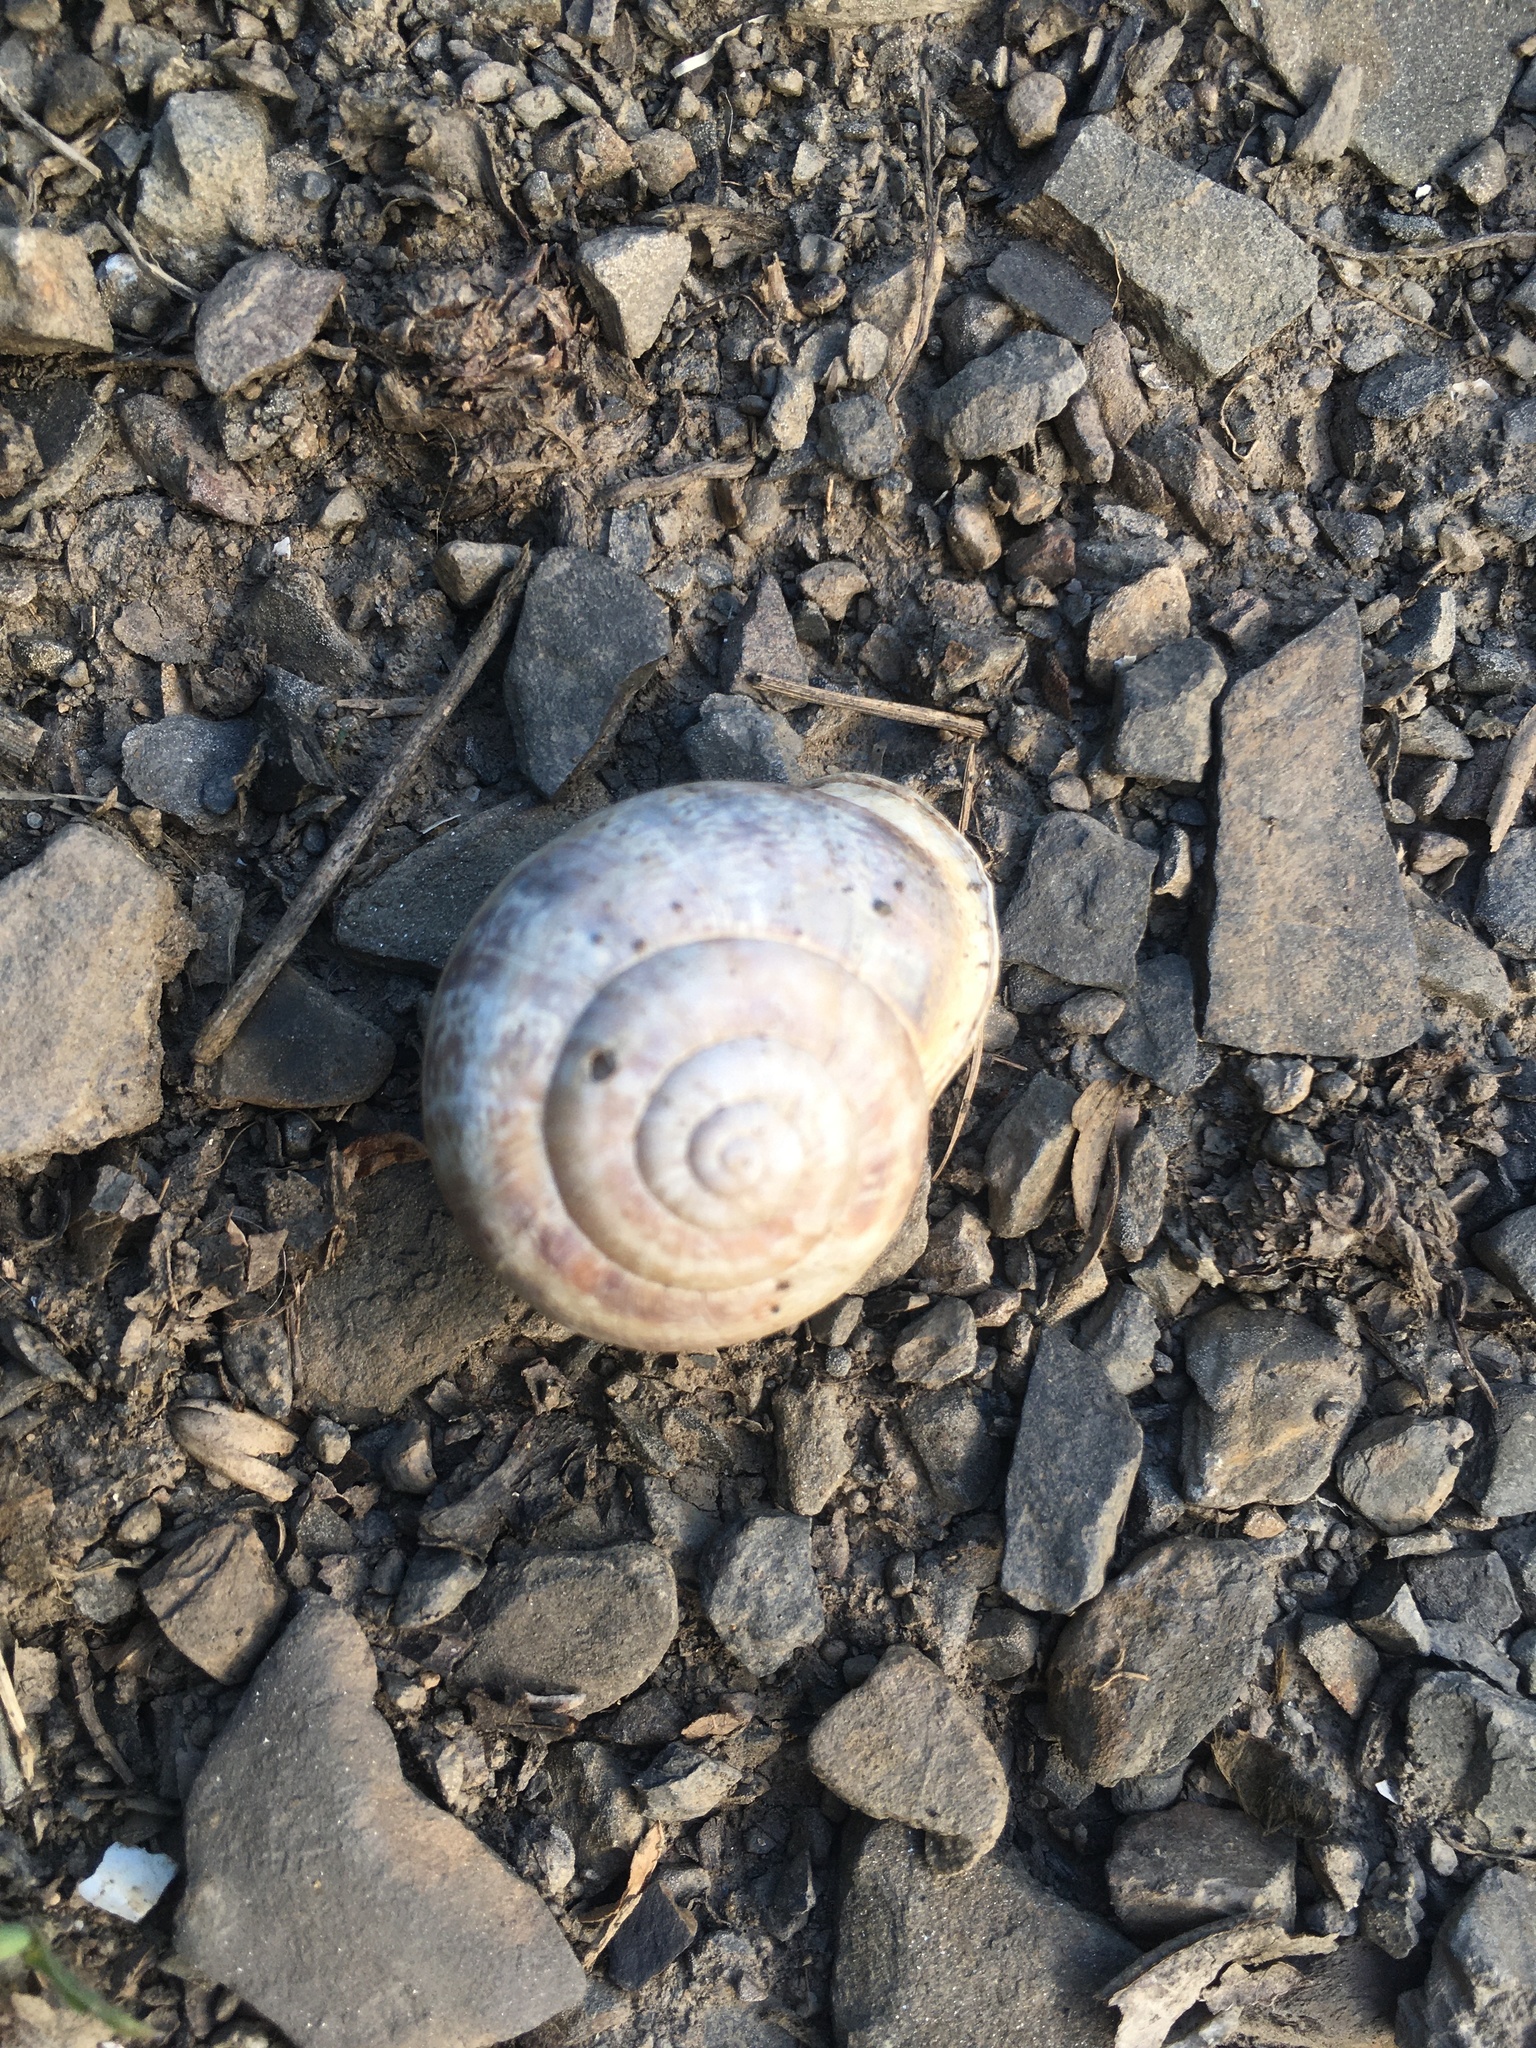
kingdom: Animalia
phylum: Mollusca
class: Gastropoda
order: Stylommatophora
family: Helicidae
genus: Eobania
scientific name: Eobania vermiculata
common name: Chocolateband snail
